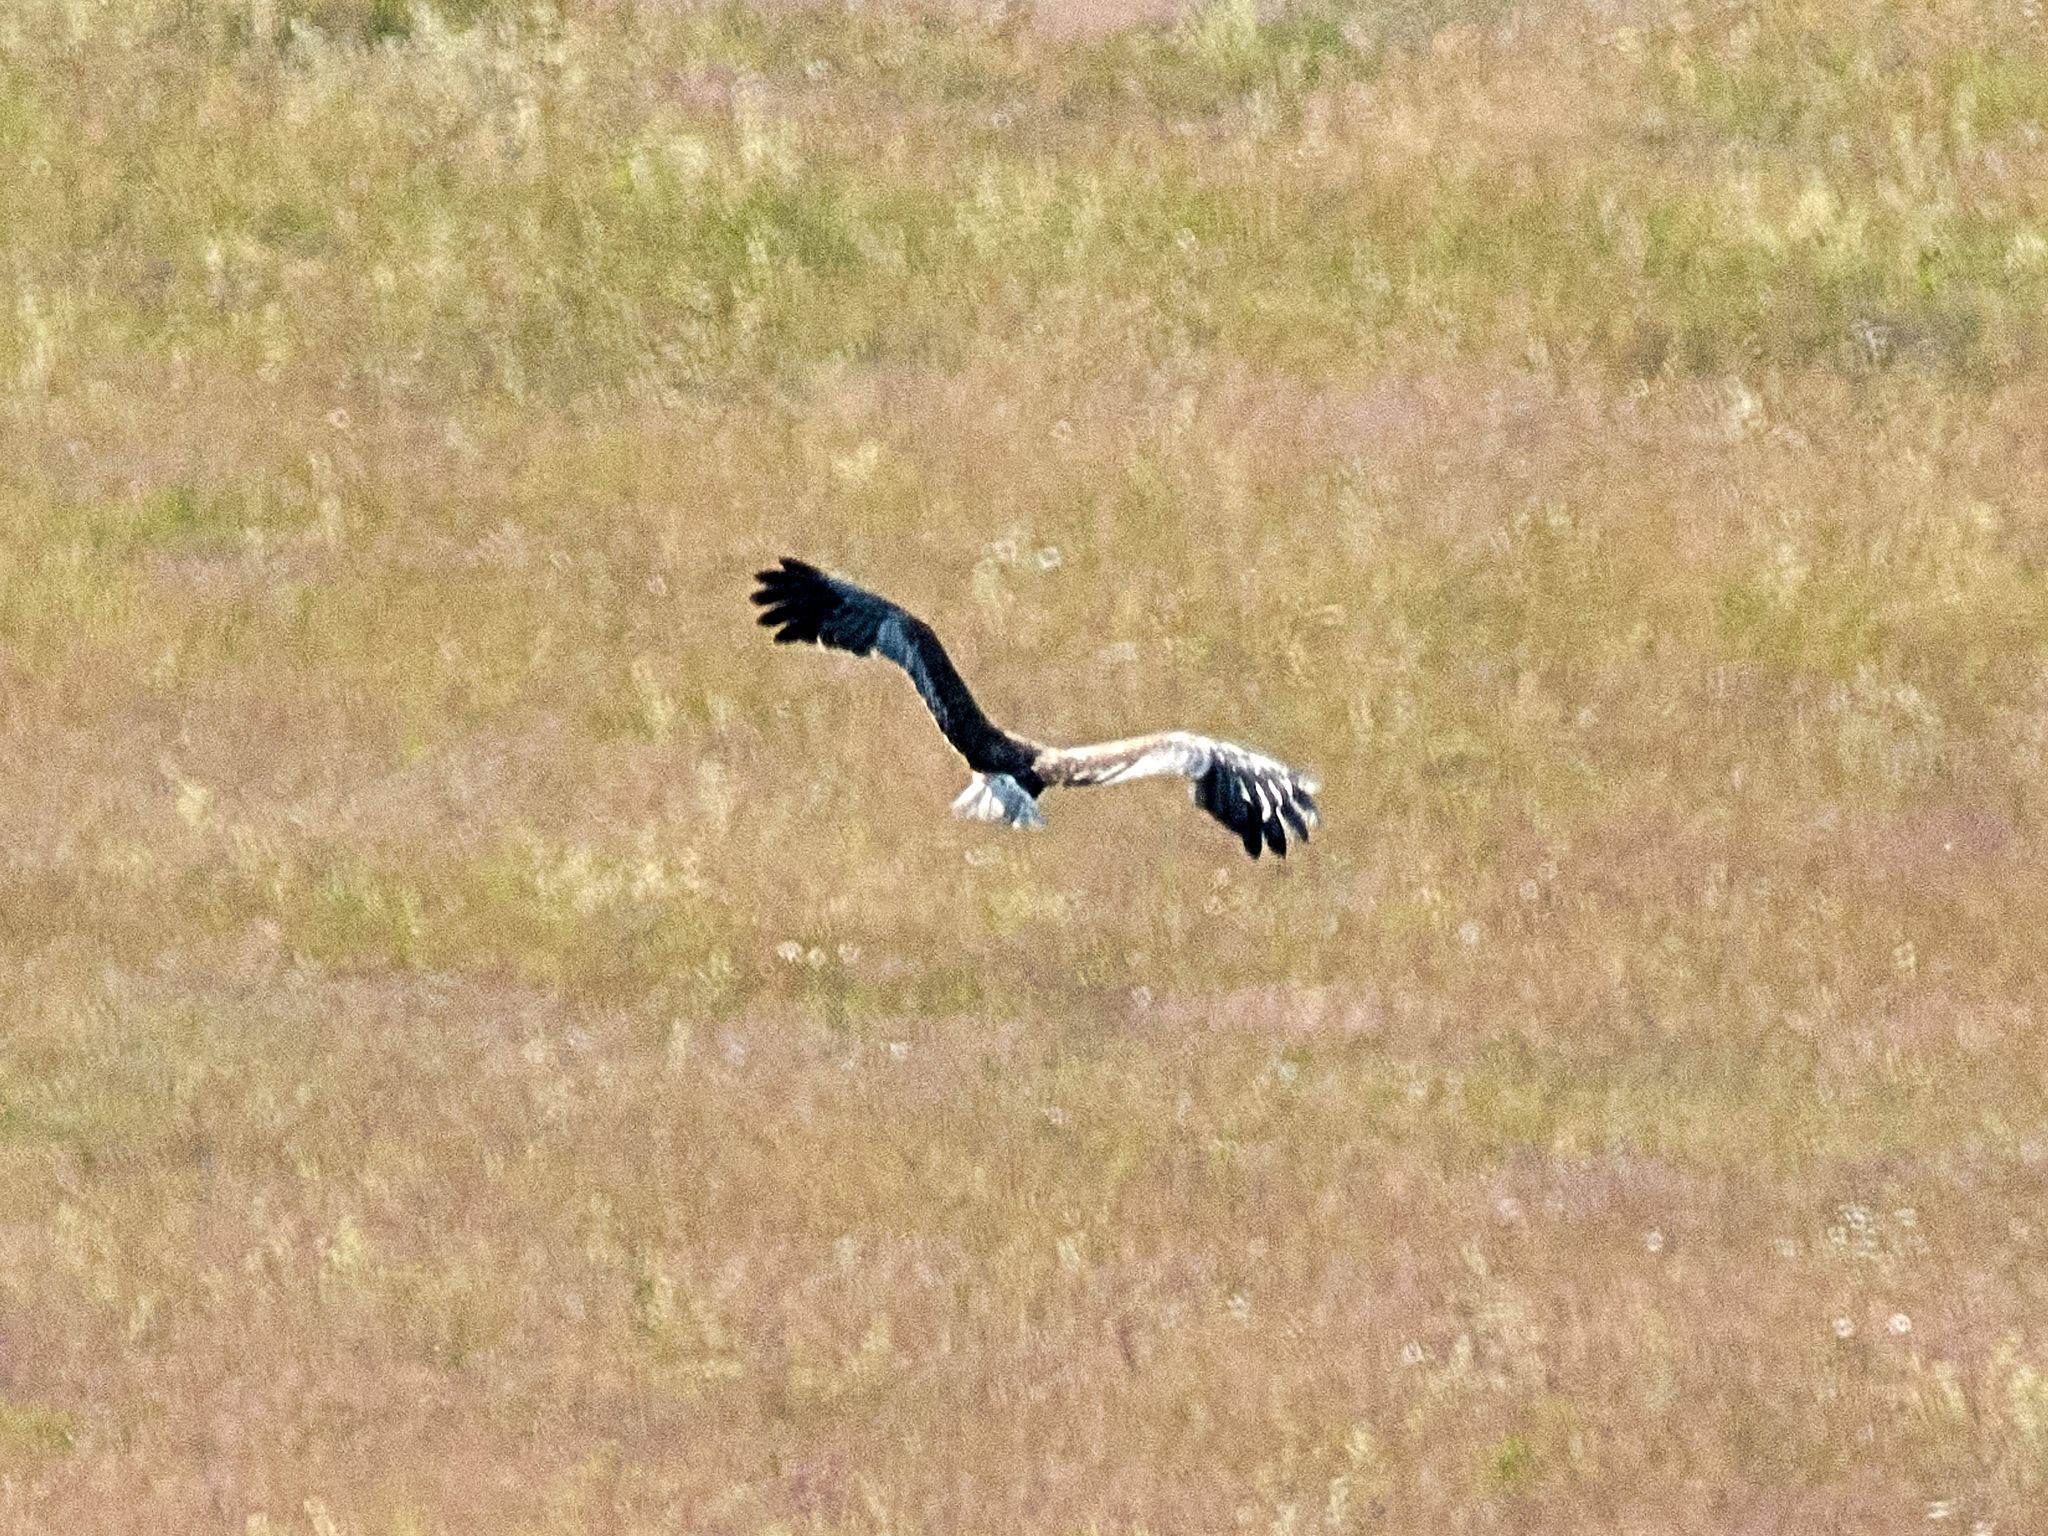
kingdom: Animalia
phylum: Chordata
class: Aves
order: Accipitriformes
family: Accipitridae
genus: Circus
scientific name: Circus aeruginosus
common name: Western marsh harrier
